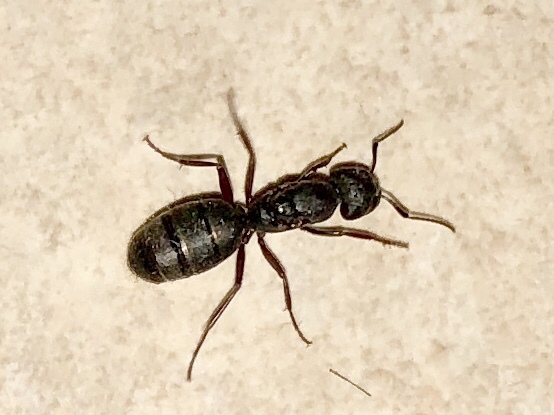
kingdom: Animalia
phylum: Arthropoda
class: Insecta
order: Hymenoptera
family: Formicidae
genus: Camponotus
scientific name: Camponotus modoc
